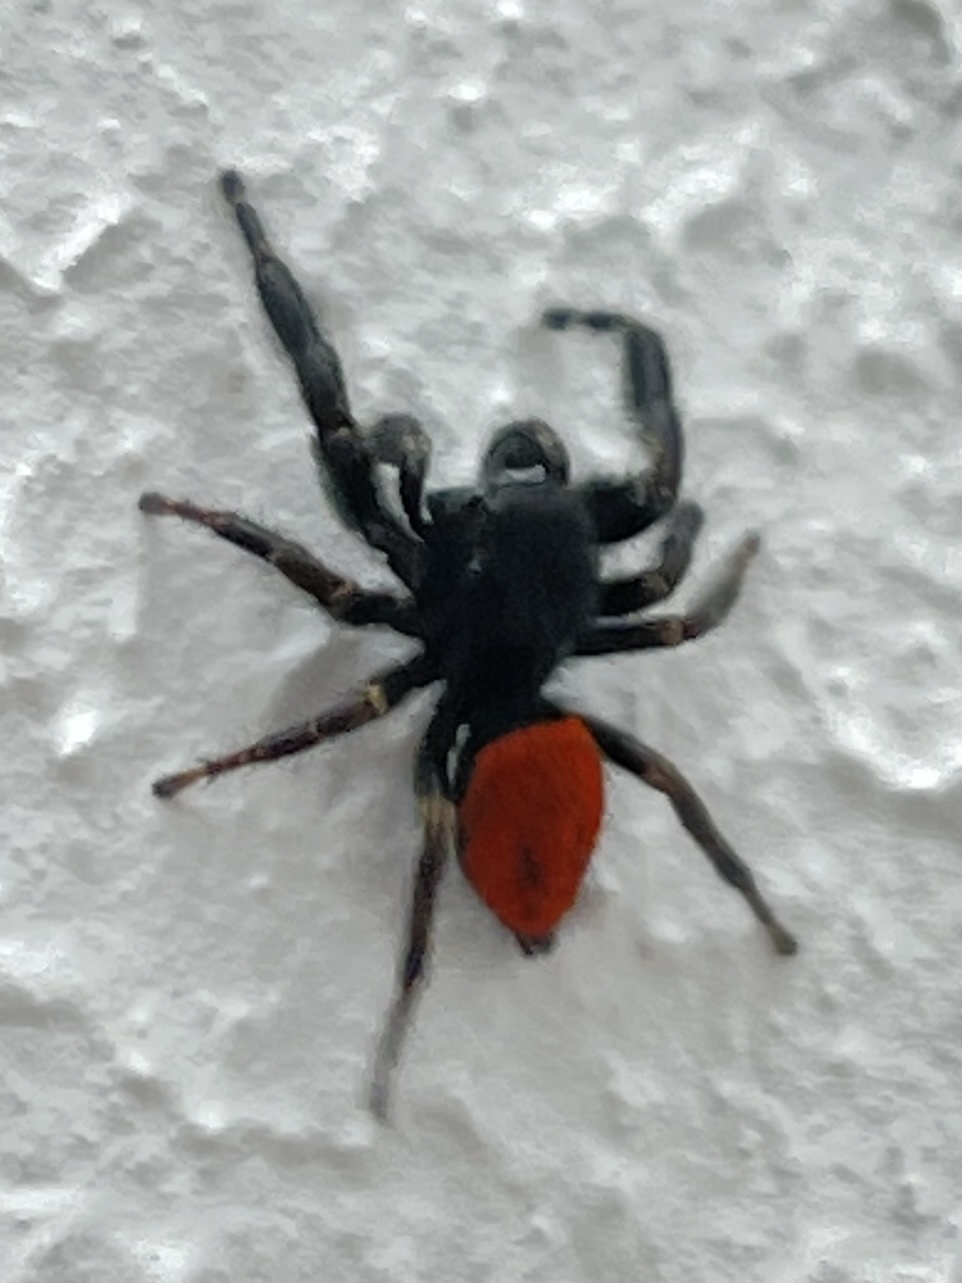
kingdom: Animalia
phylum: Arthropoda
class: Arachnida
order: Araneae
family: Salticidae
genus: Phidippus
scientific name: Phidippus johnsoni
